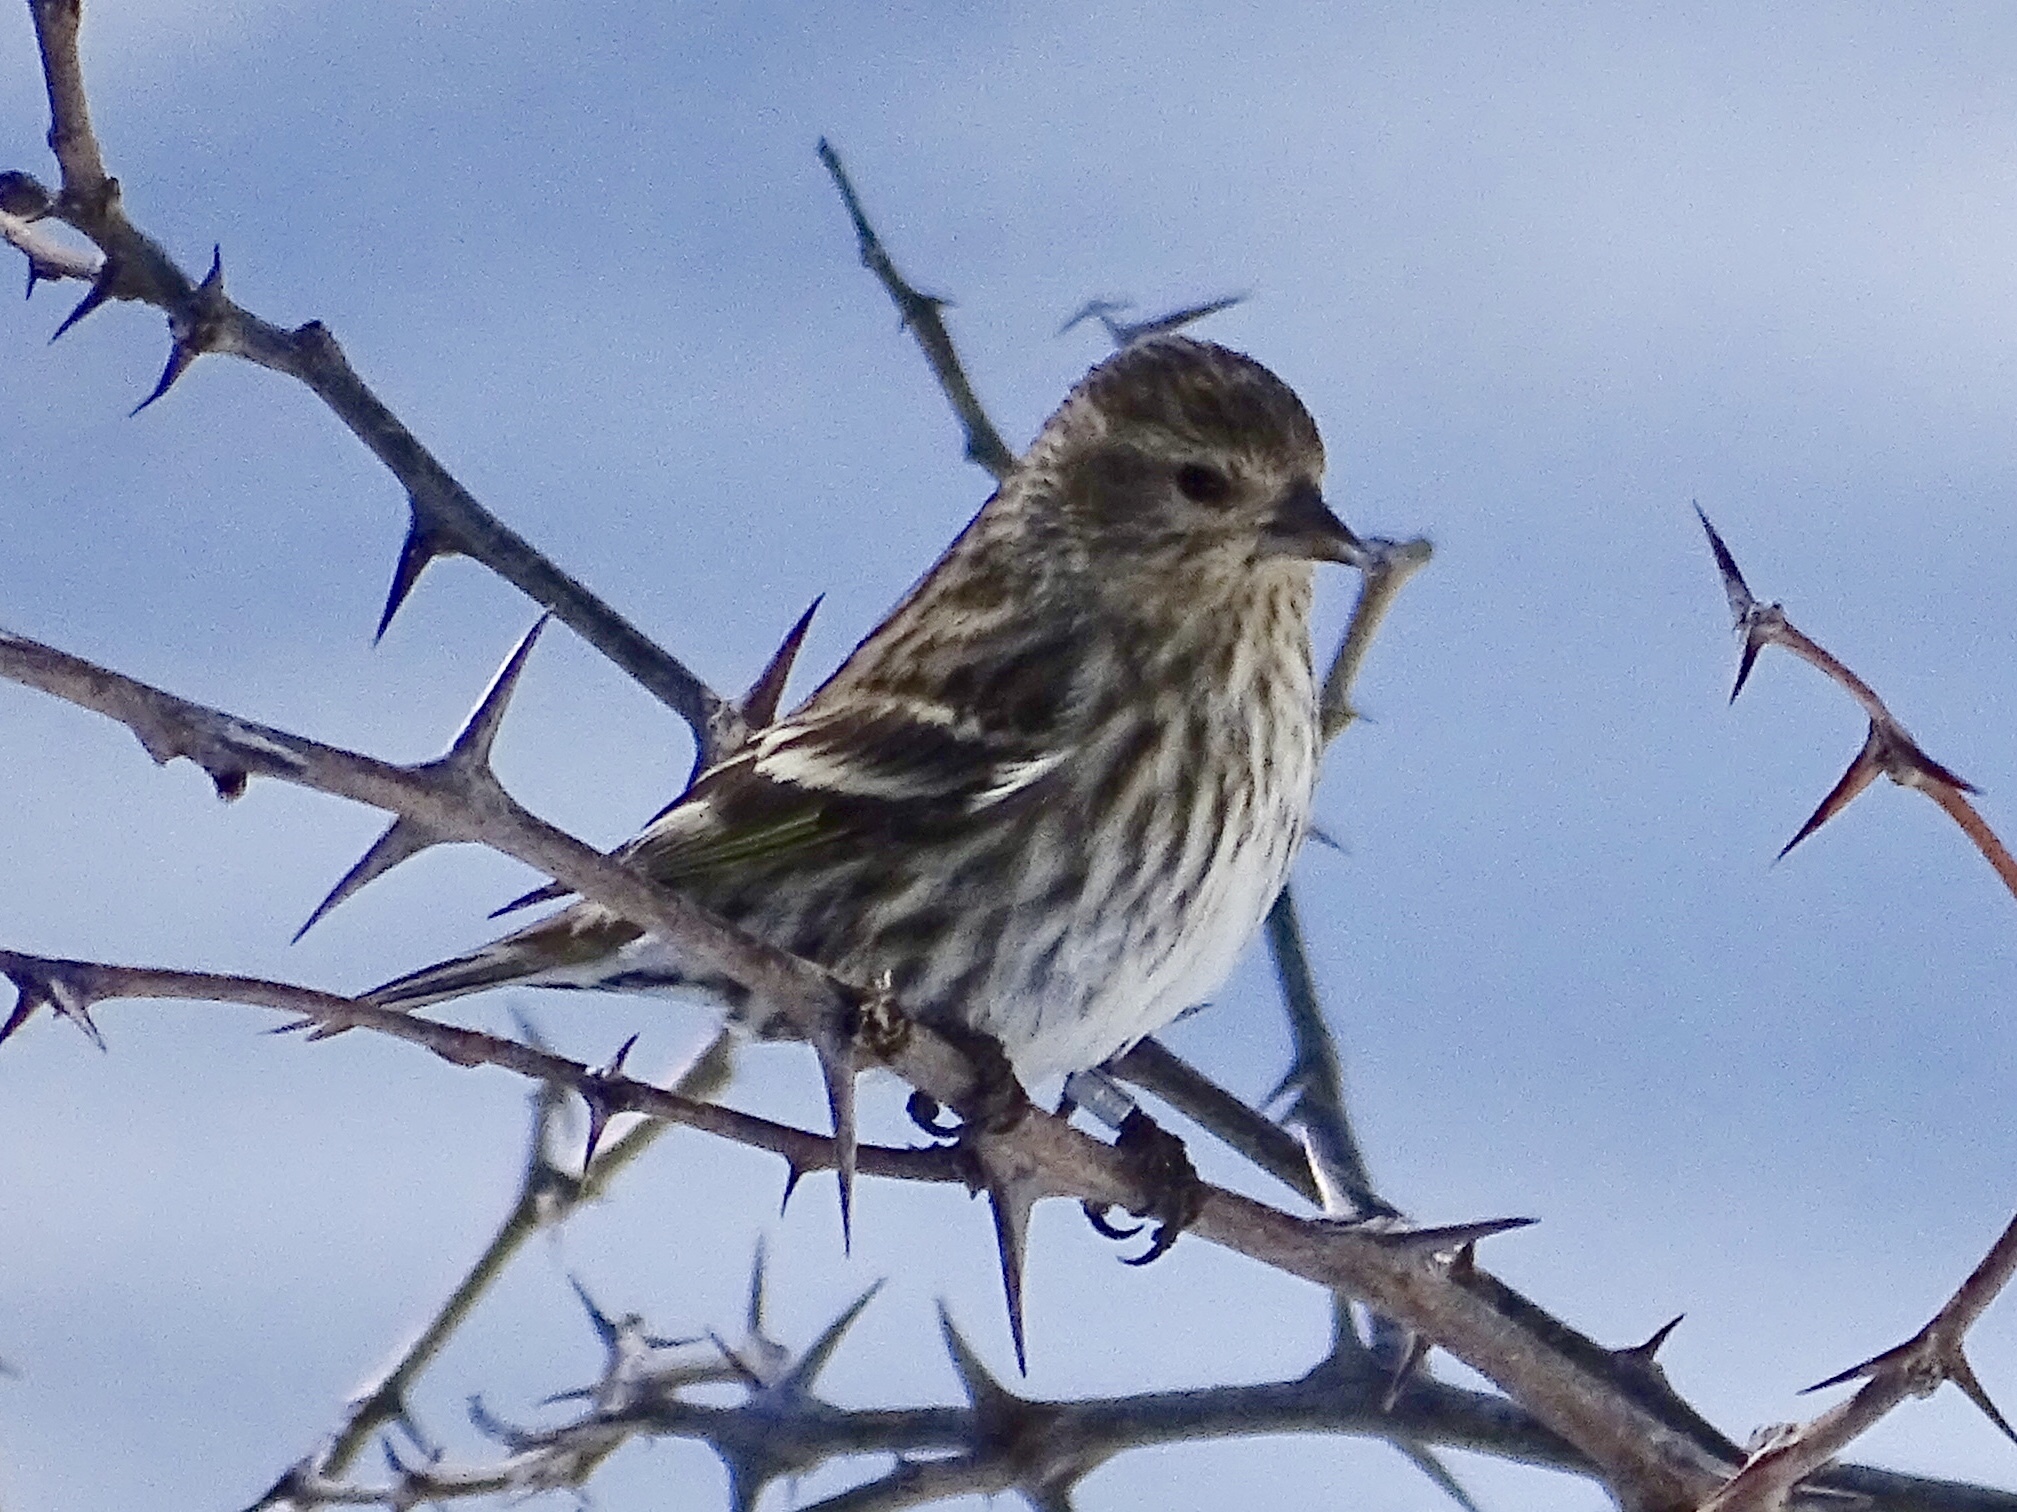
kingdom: Animalia
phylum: Chordata
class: Aves
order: Passeriformes
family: Fringillidae
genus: Spinus
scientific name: Spinus pinus
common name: Pine siskin
